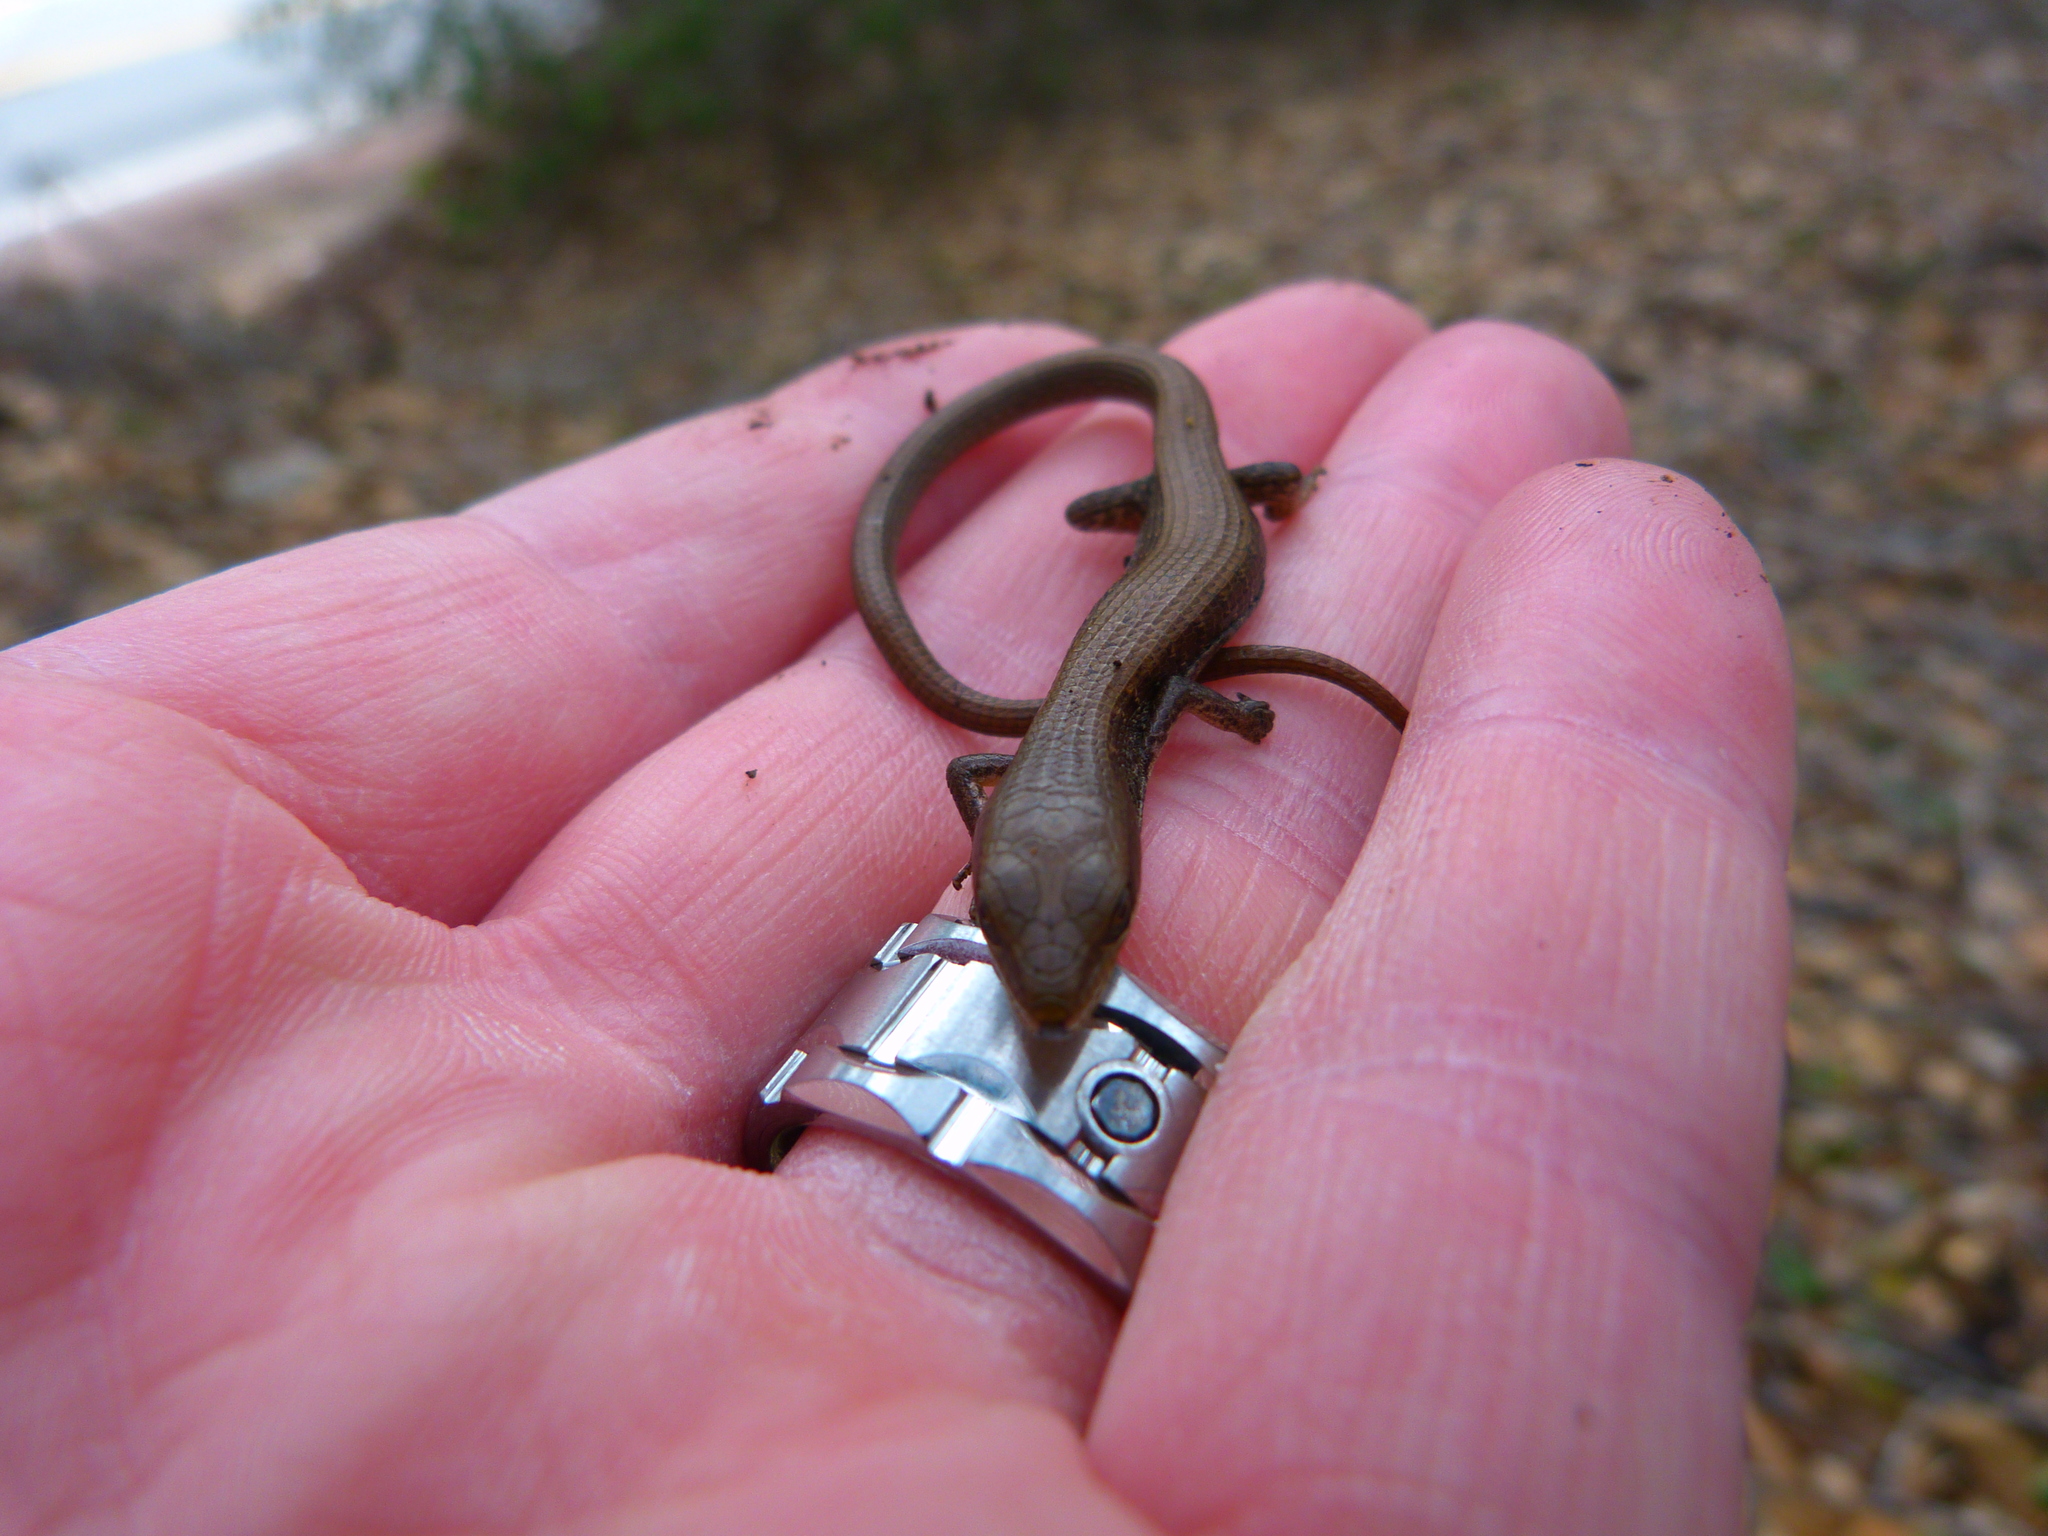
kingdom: Animalia
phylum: Chordata
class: Squamata
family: Anguidae
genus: Elgaria
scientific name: Elgaria multicarinata
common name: Southern alligator lizard
